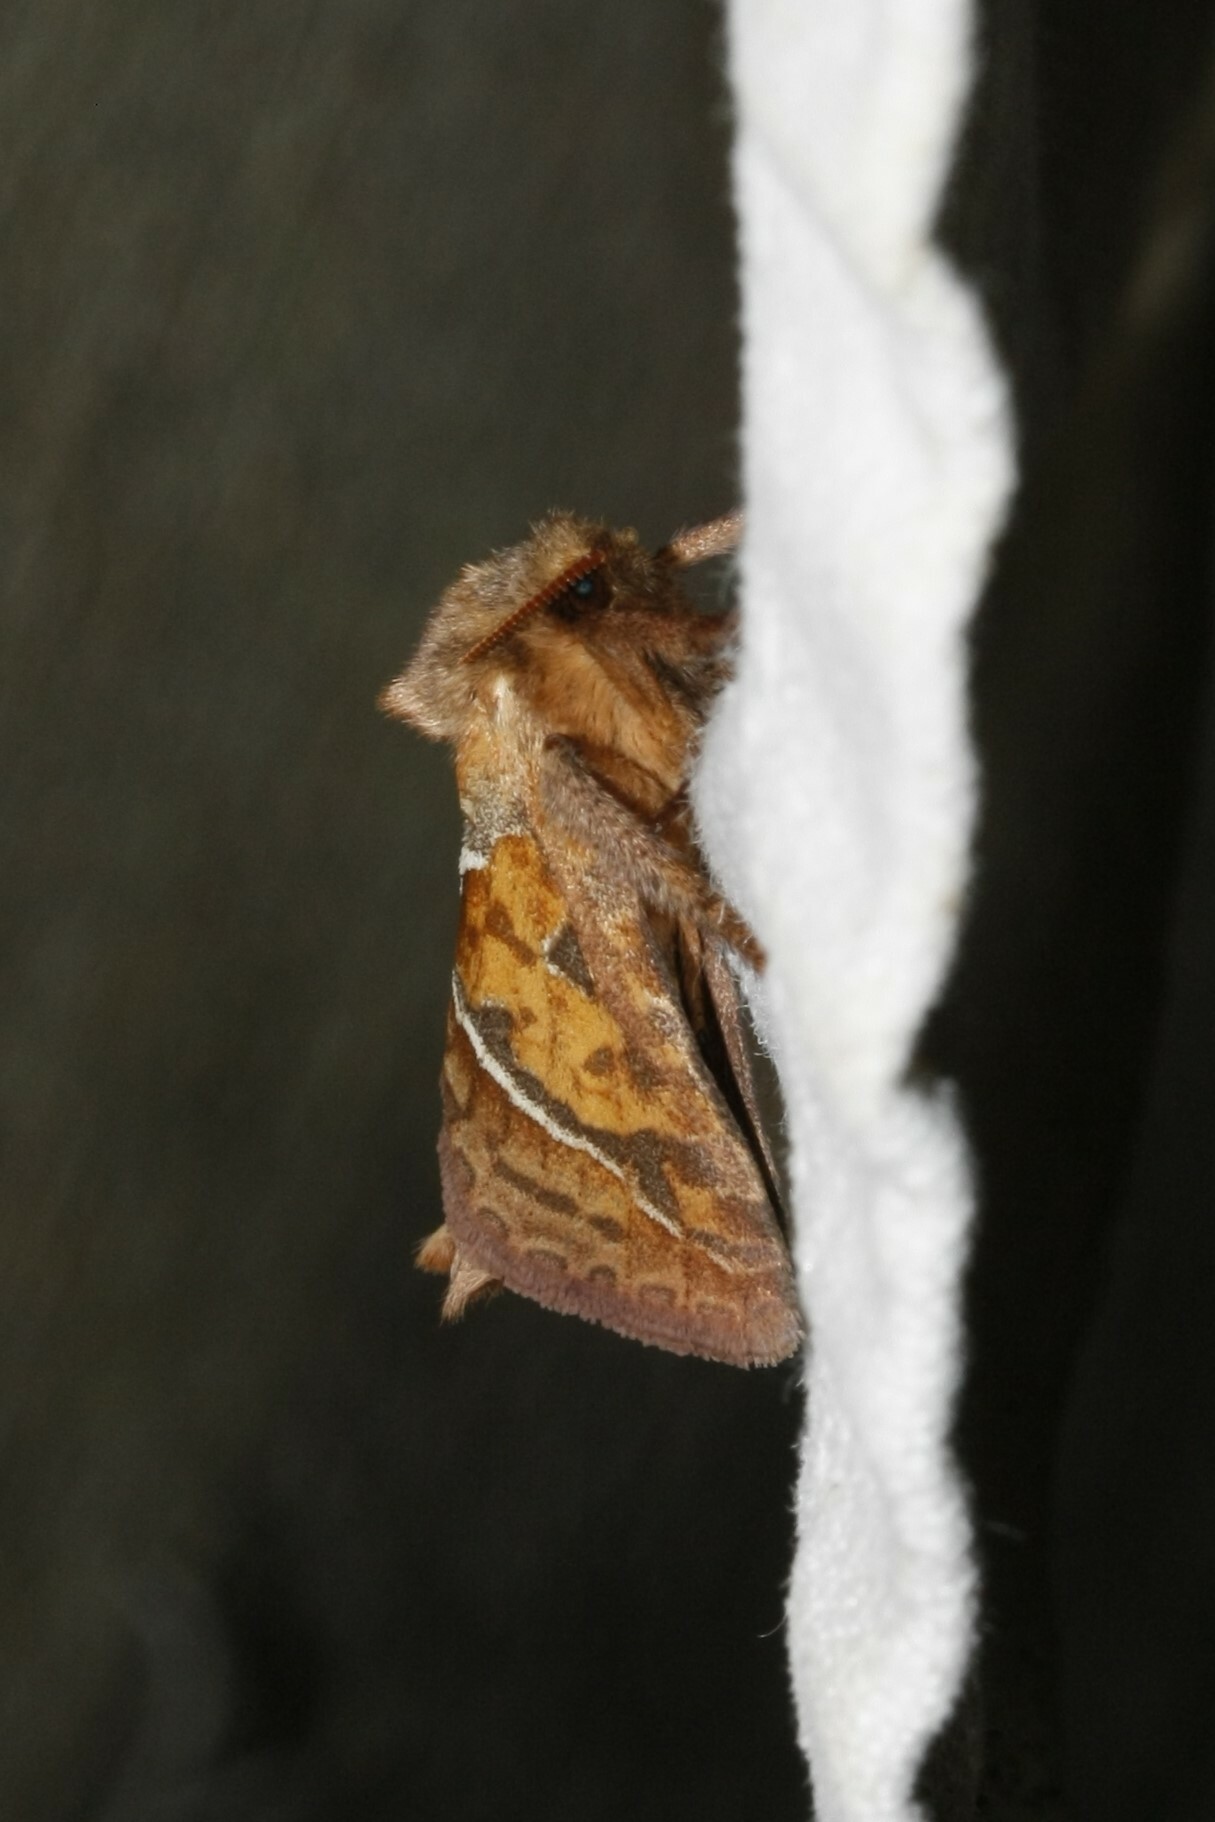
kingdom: Animalia
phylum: Arthropoda
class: Insecta
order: Lepidoptera
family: Hepialidae
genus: Triodia
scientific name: Triodia sylvina
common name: Orange swift
